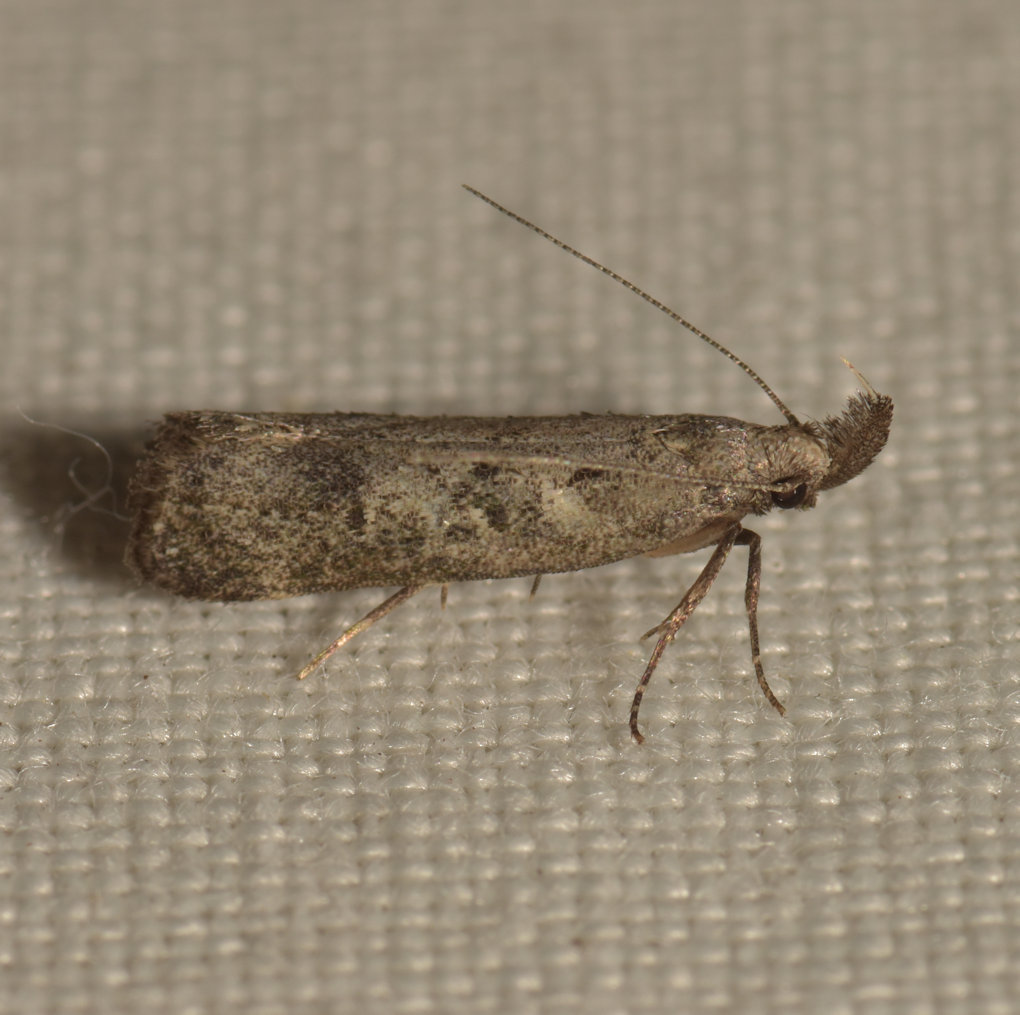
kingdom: Animalia
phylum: Arthropoda
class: Insecta
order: Lepidoptera
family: Gelechiidae
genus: Dichomeris
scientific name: Dichomeris inversella
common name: Inverse dichomeris moth
